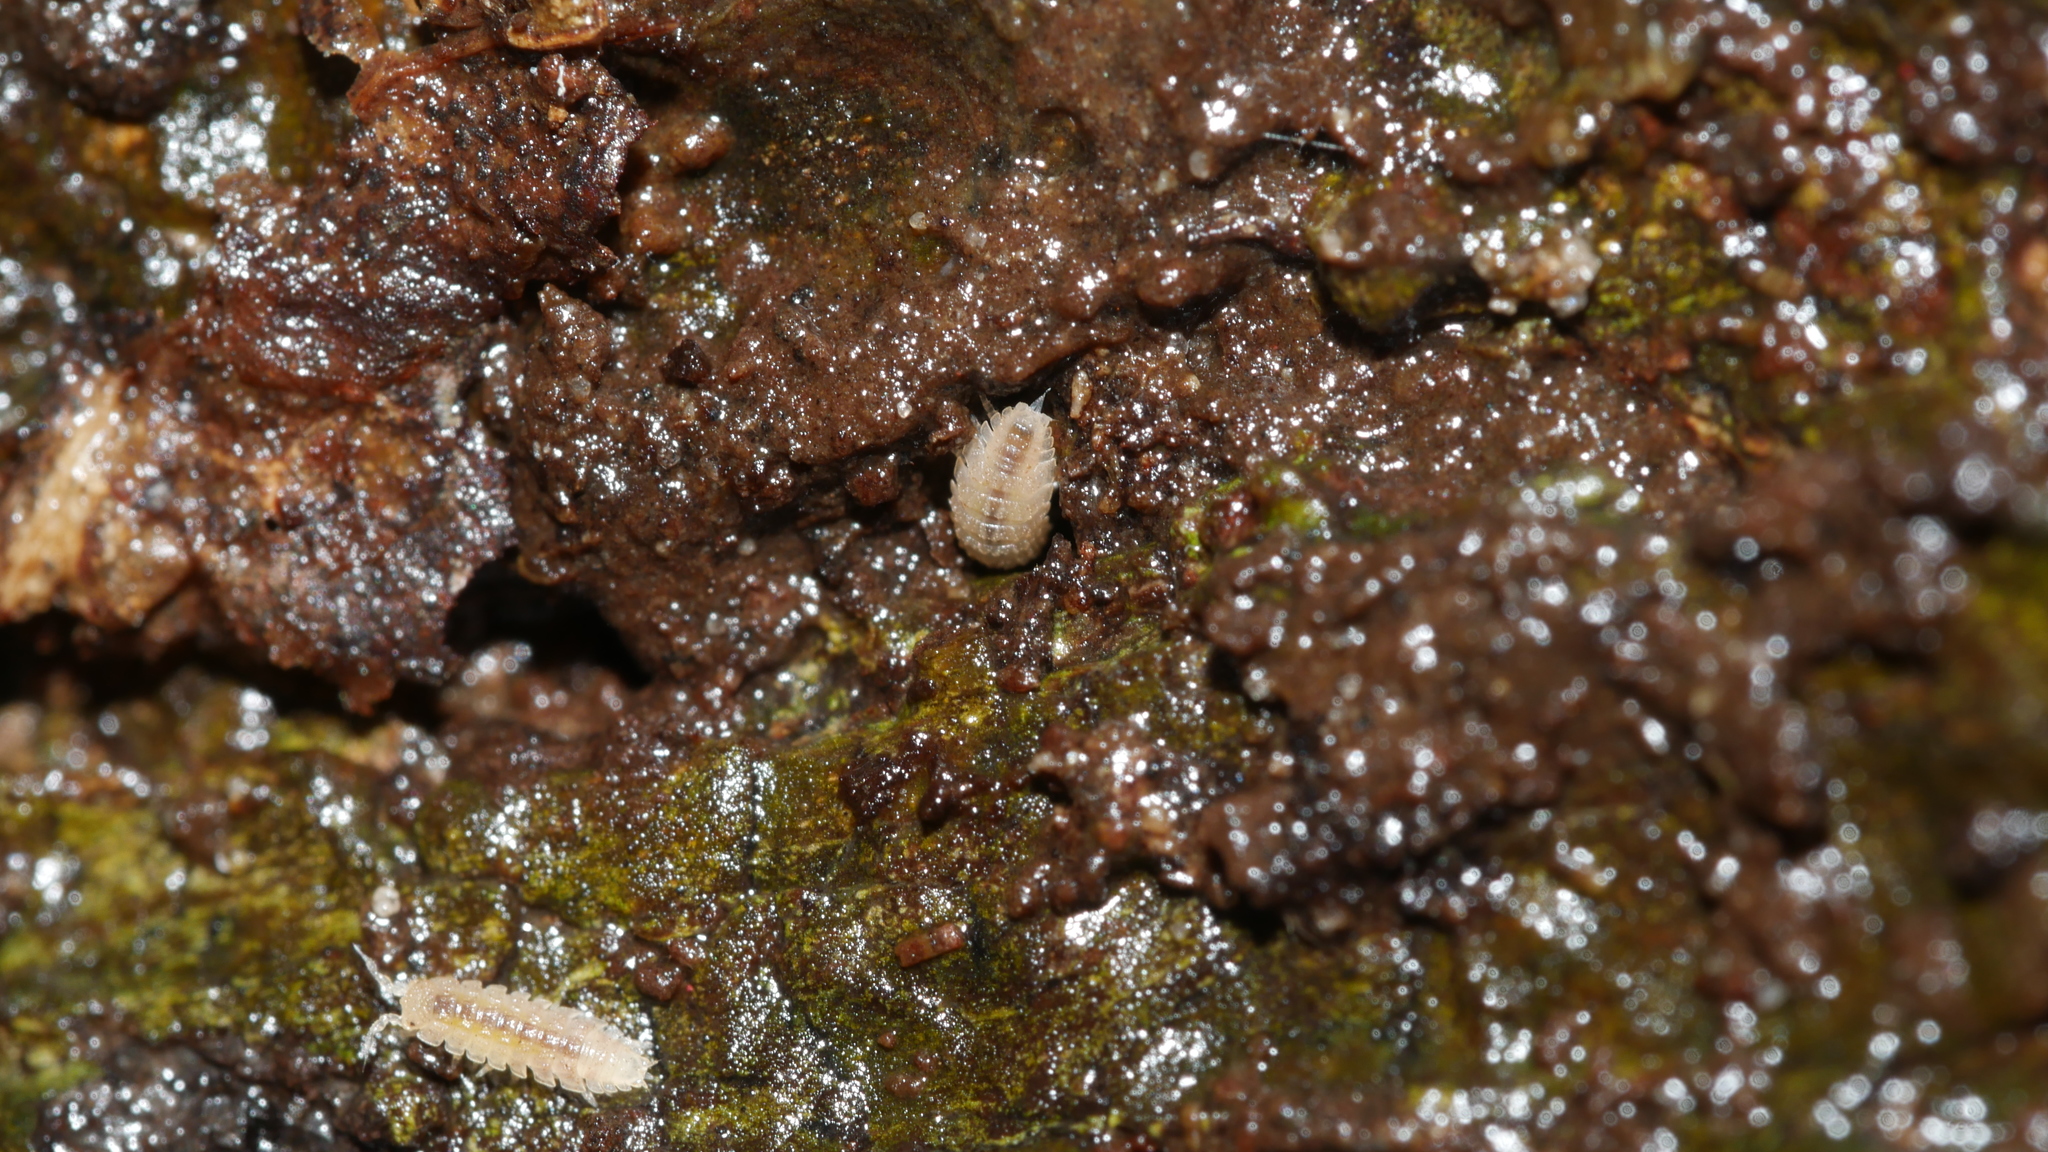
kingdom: Animalia
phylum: Arthropoda
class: Malacostraca
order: Isopoda
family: Trichoniscidae
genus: Haplophthalmus
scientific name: Haplophthalmus danicus
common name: Pillbug
